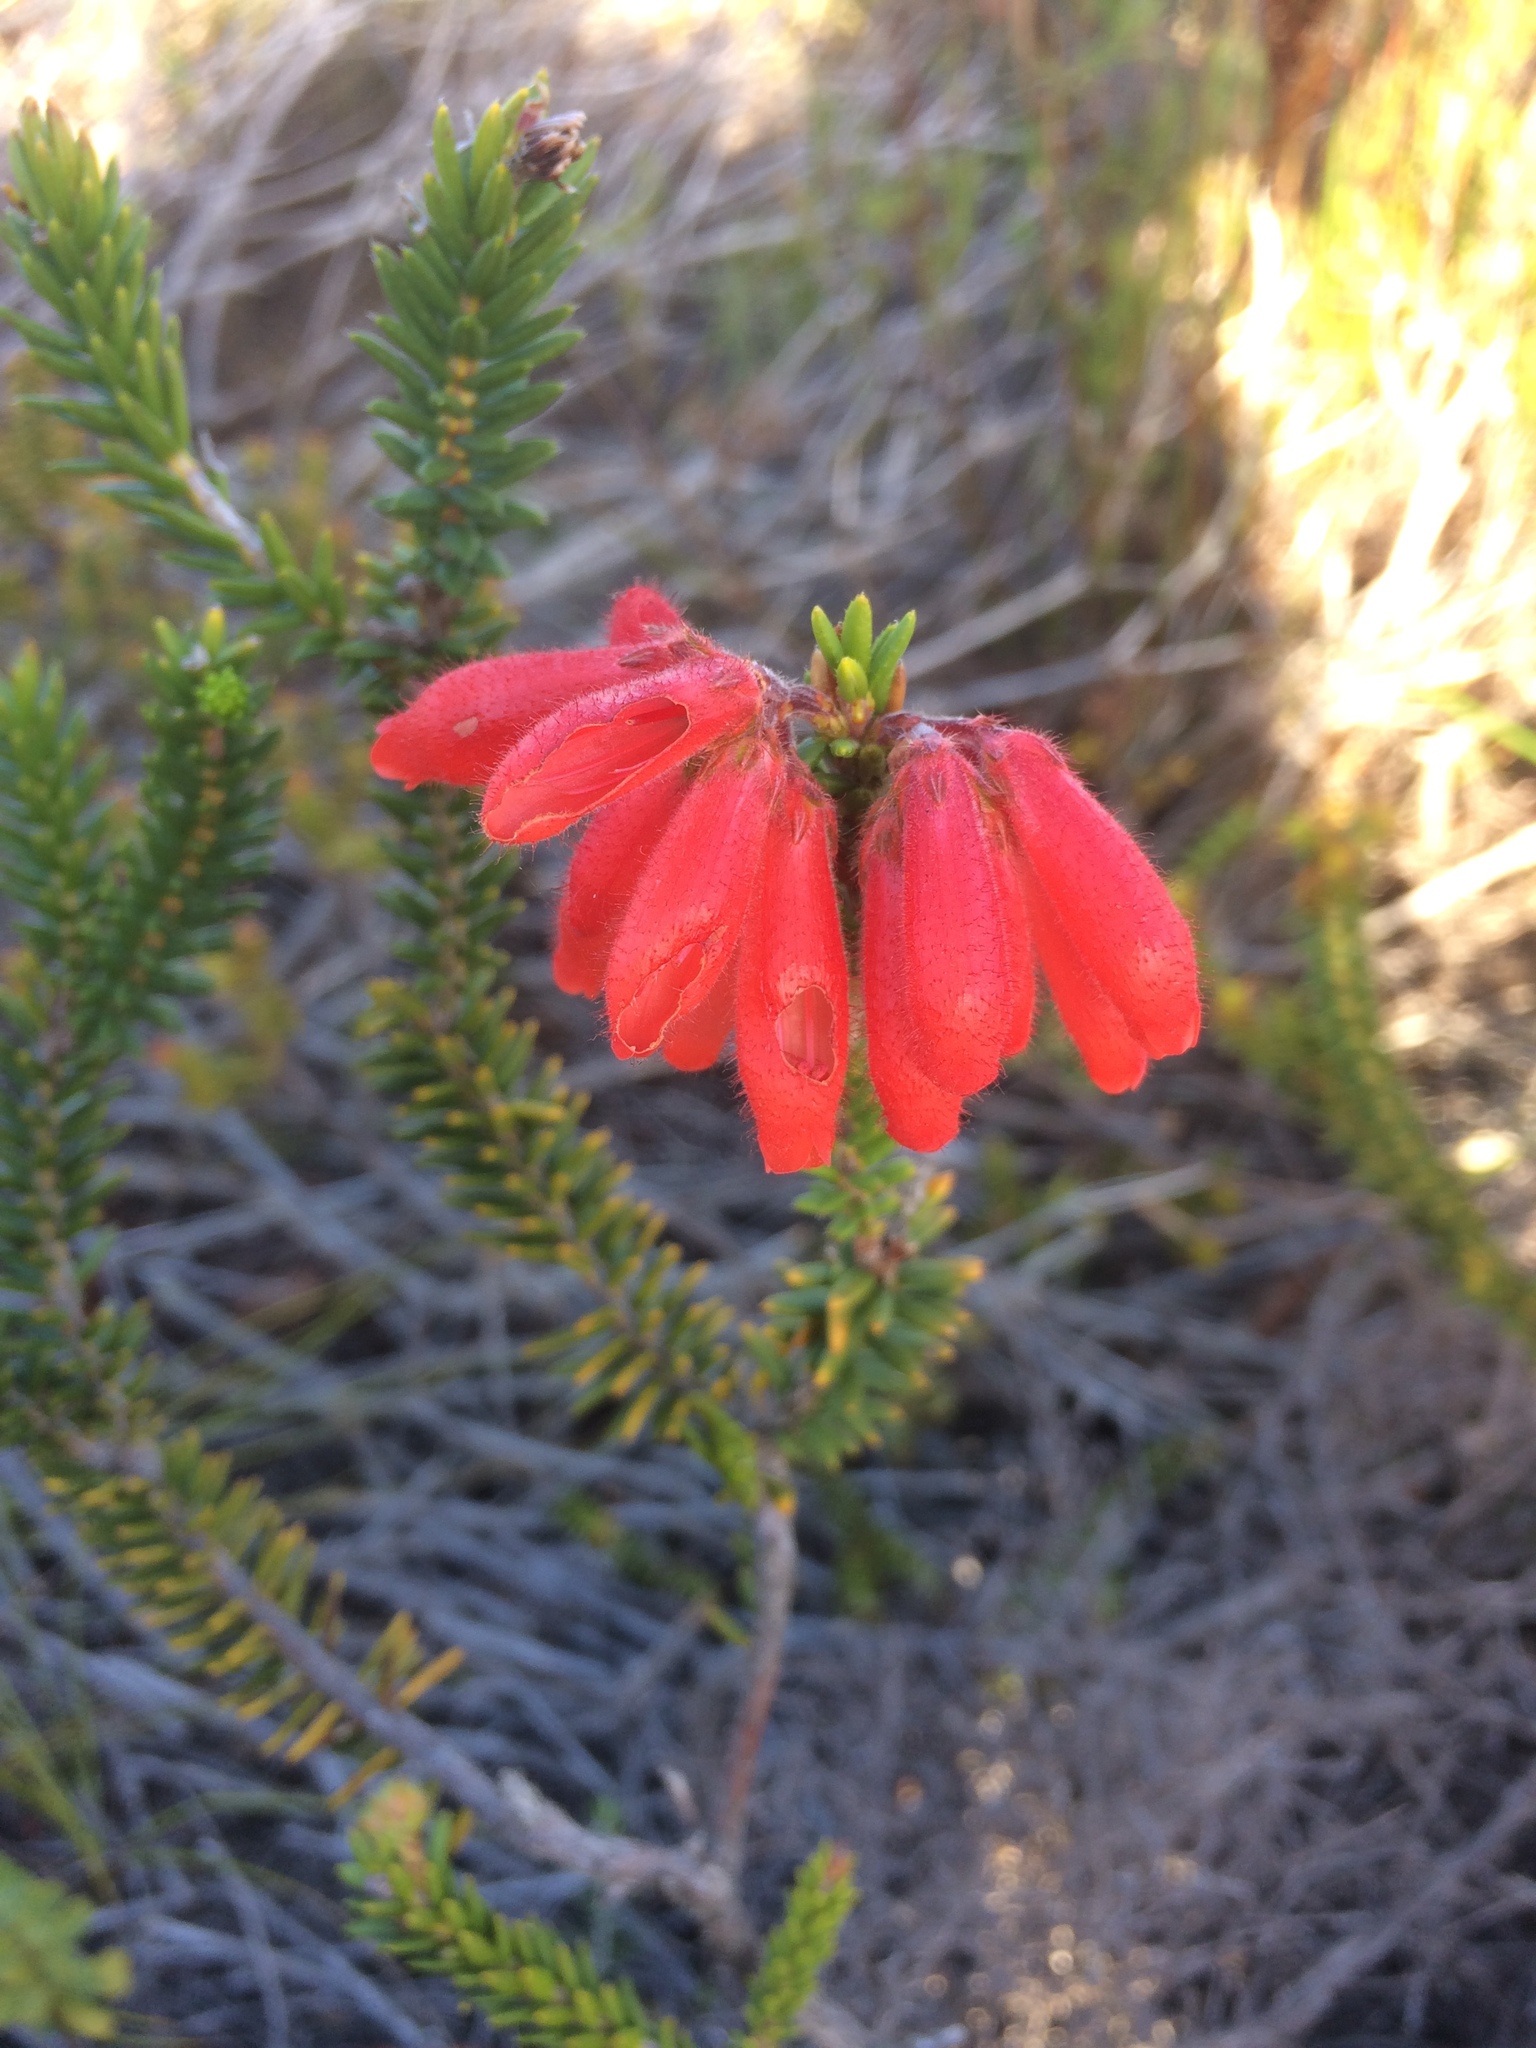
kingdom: Plantae
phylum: Tracheophyta
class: Magnoliopsida
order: Ericales
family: Ericaceae
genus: Erica
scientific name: Erica cerinthoides
